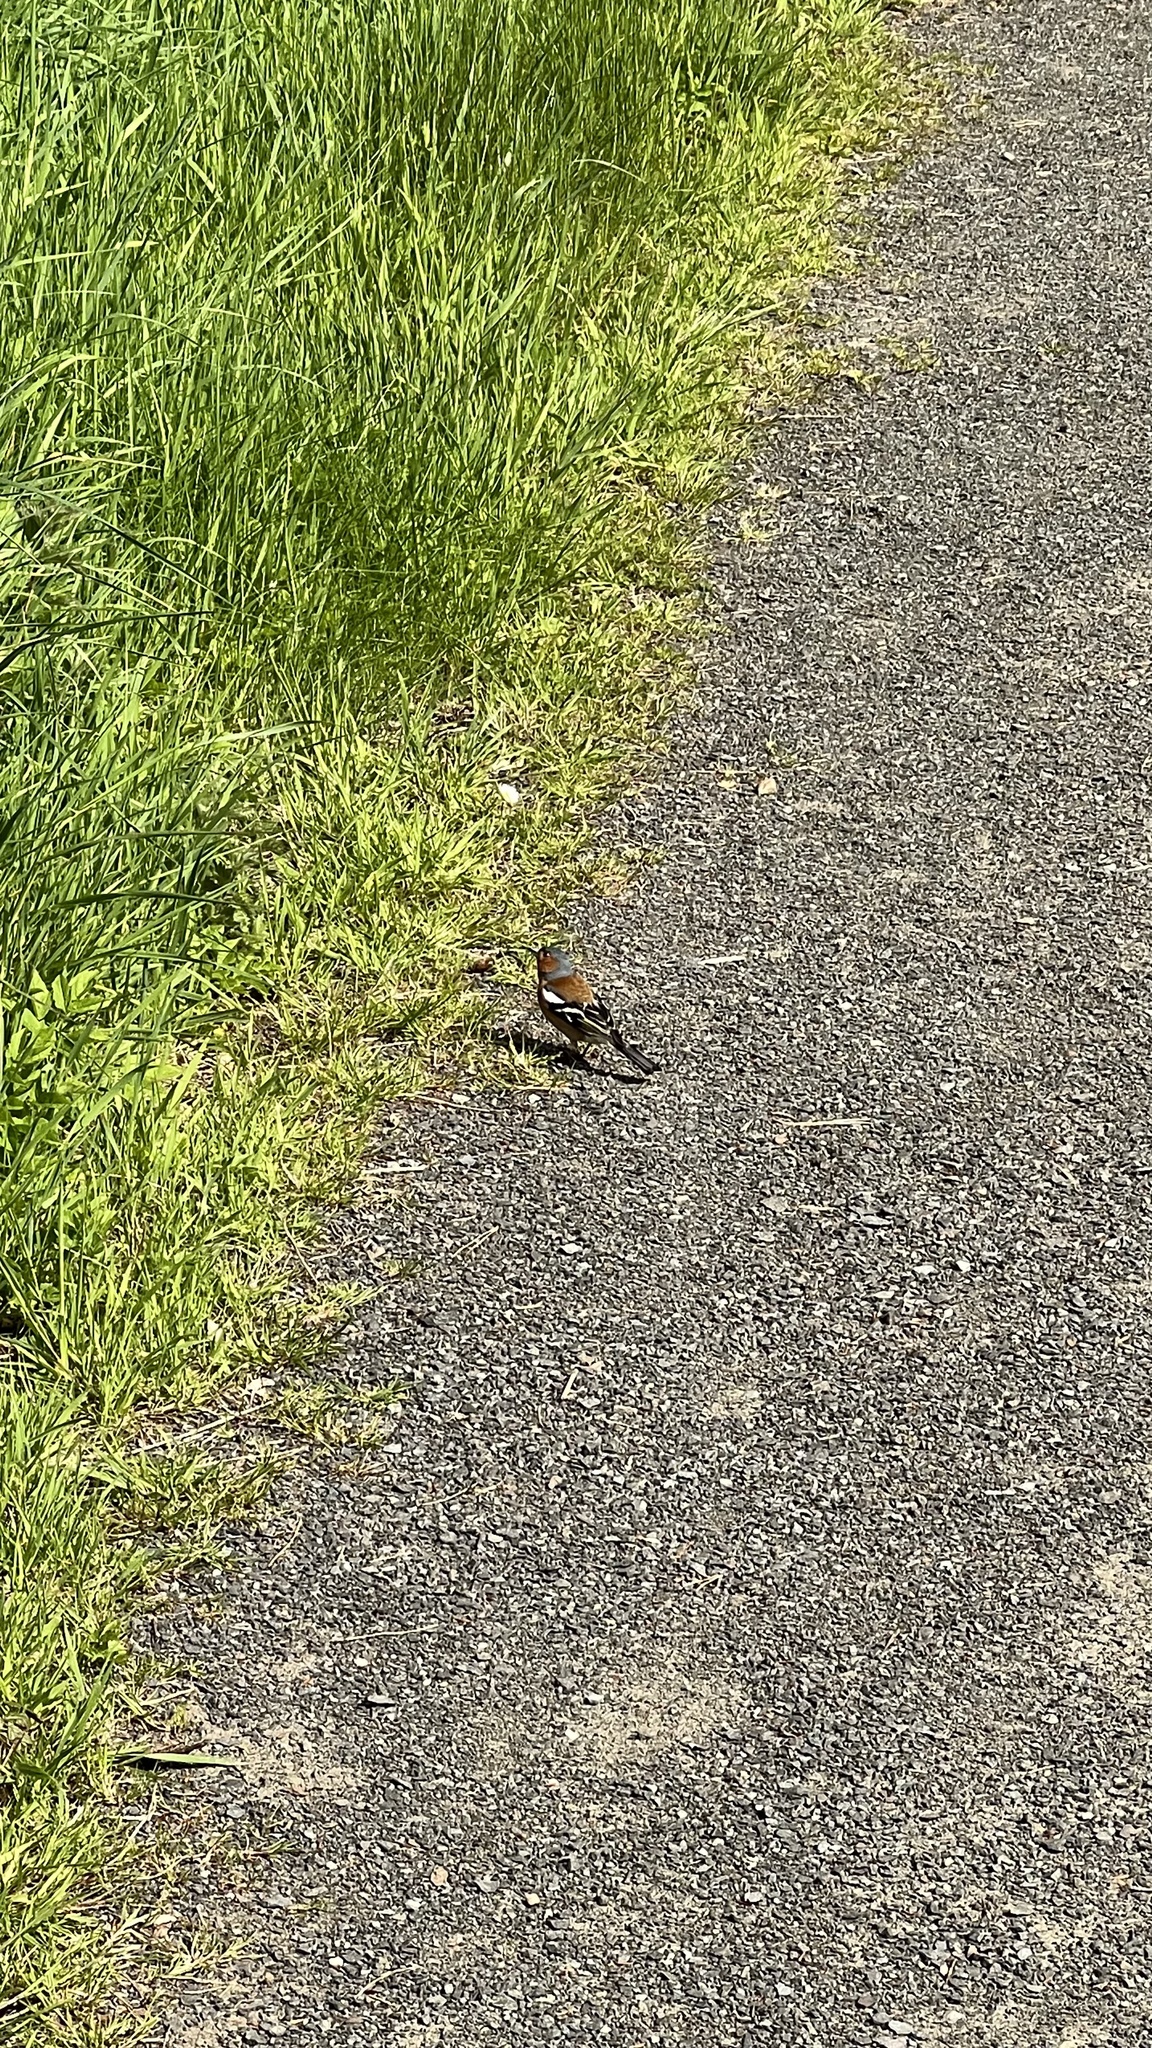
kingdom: Animalia
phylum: Chordata
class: Aves
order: Passeriformes
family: Fringillidae
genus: Fringilla
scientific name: Fringilla coelebs
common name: Common chaffinch
